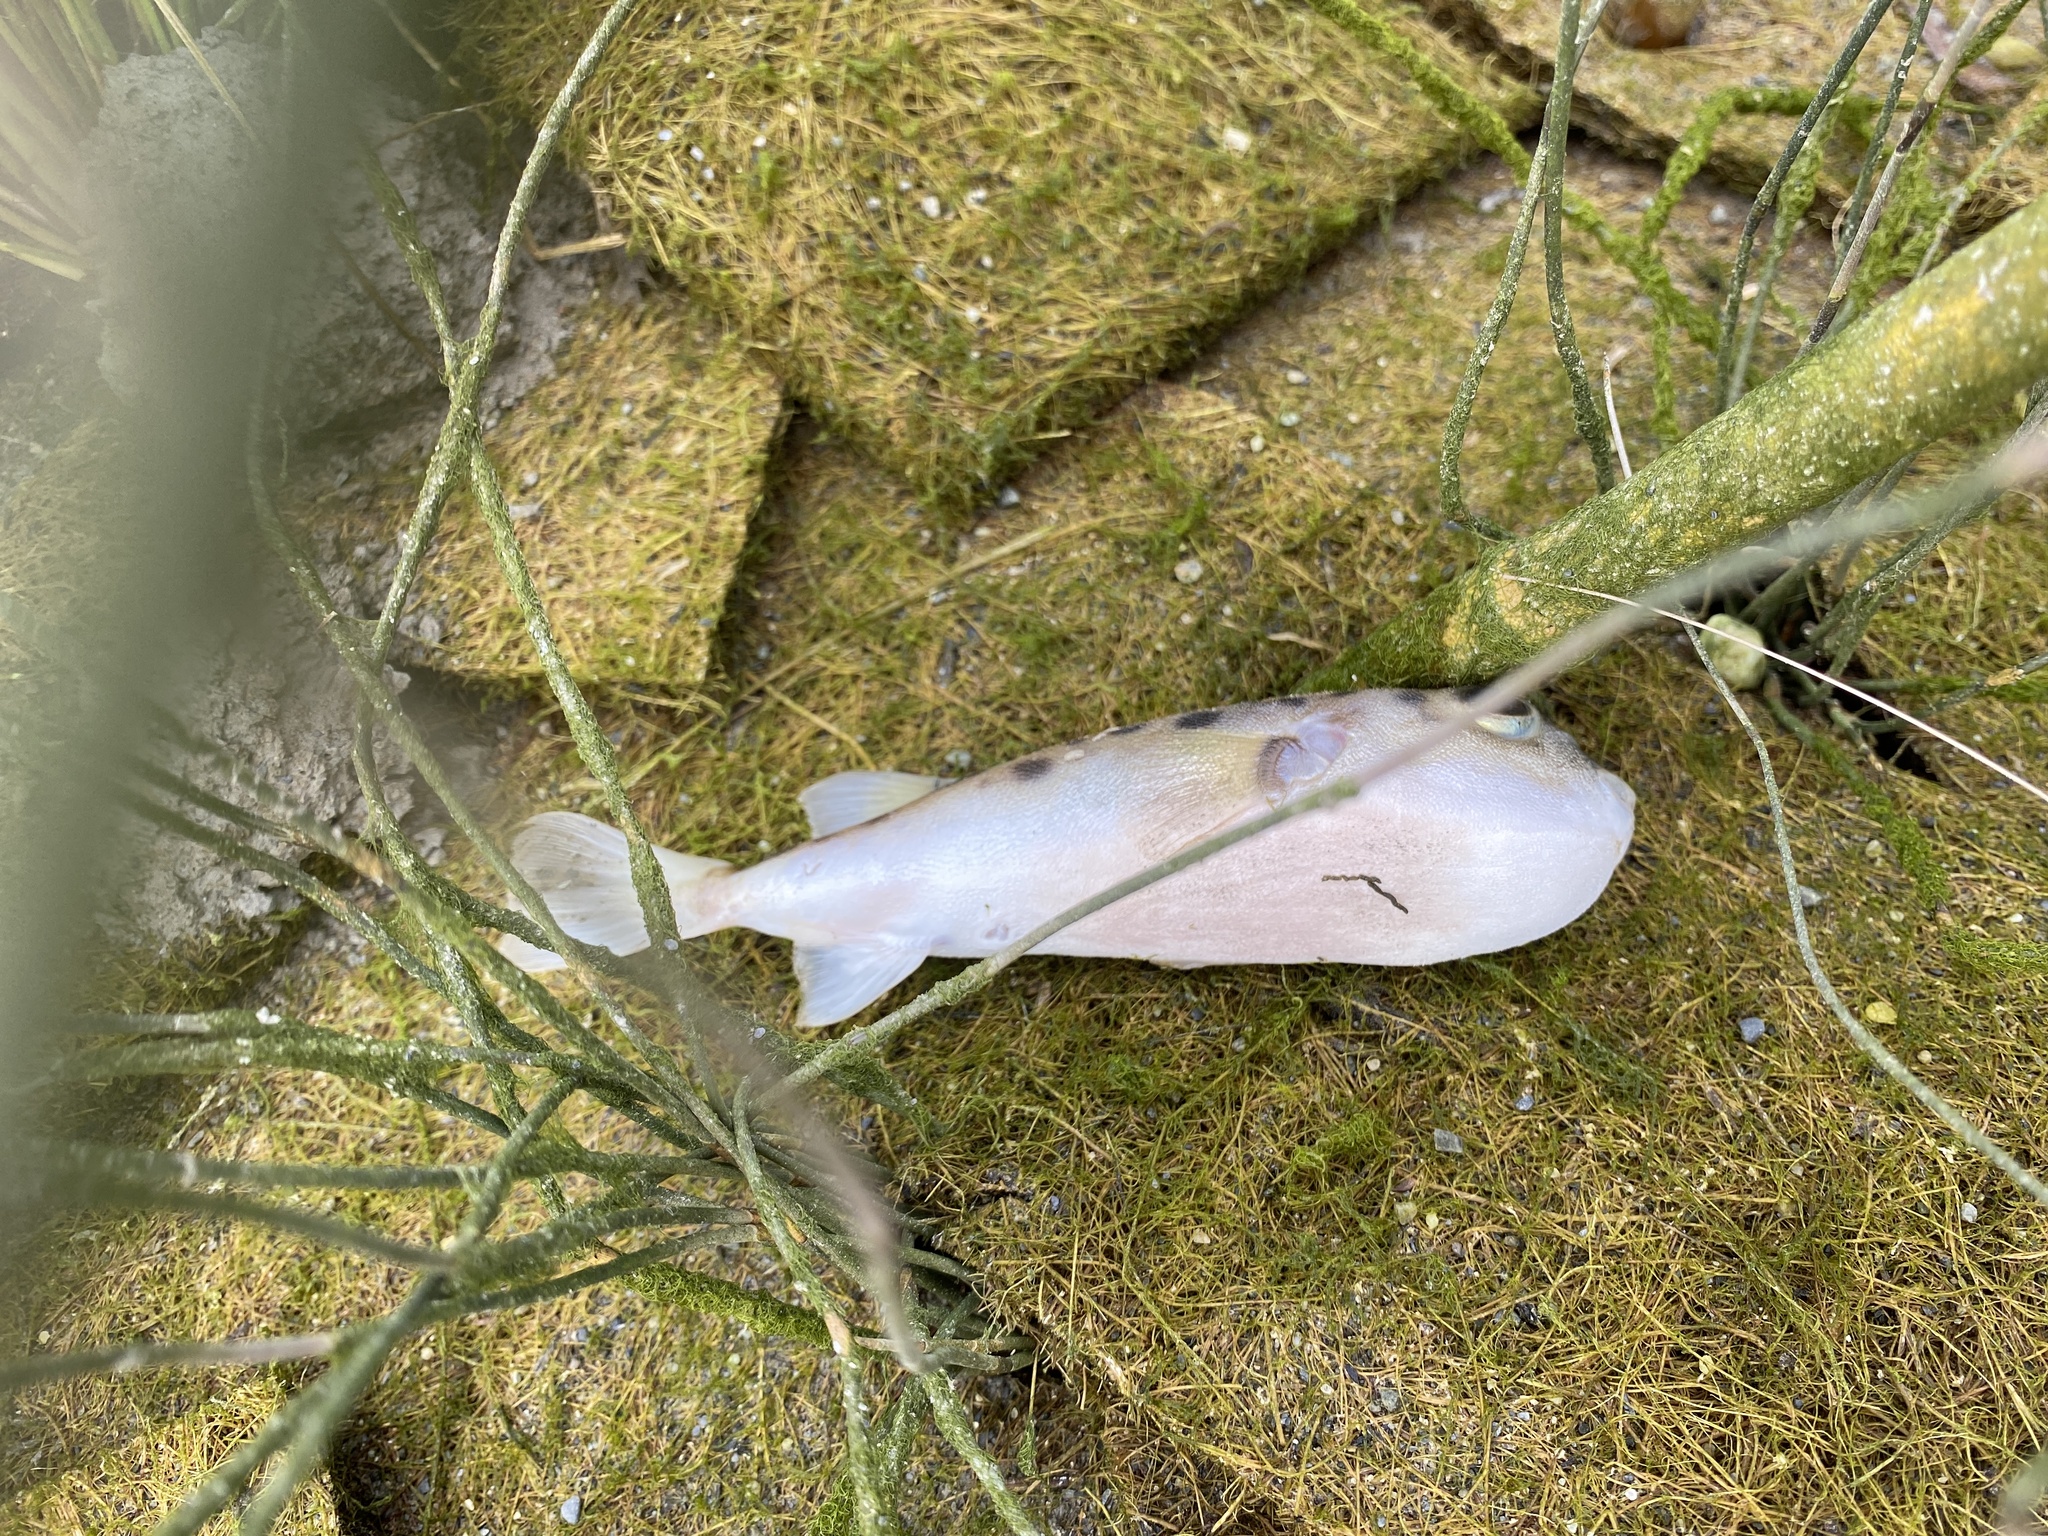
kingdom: Animalia
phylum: Chordata
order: Tetraodontiformes
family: Tetraodontidae
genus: Contusus
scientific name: Contusus richei
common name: Barred toadfish
